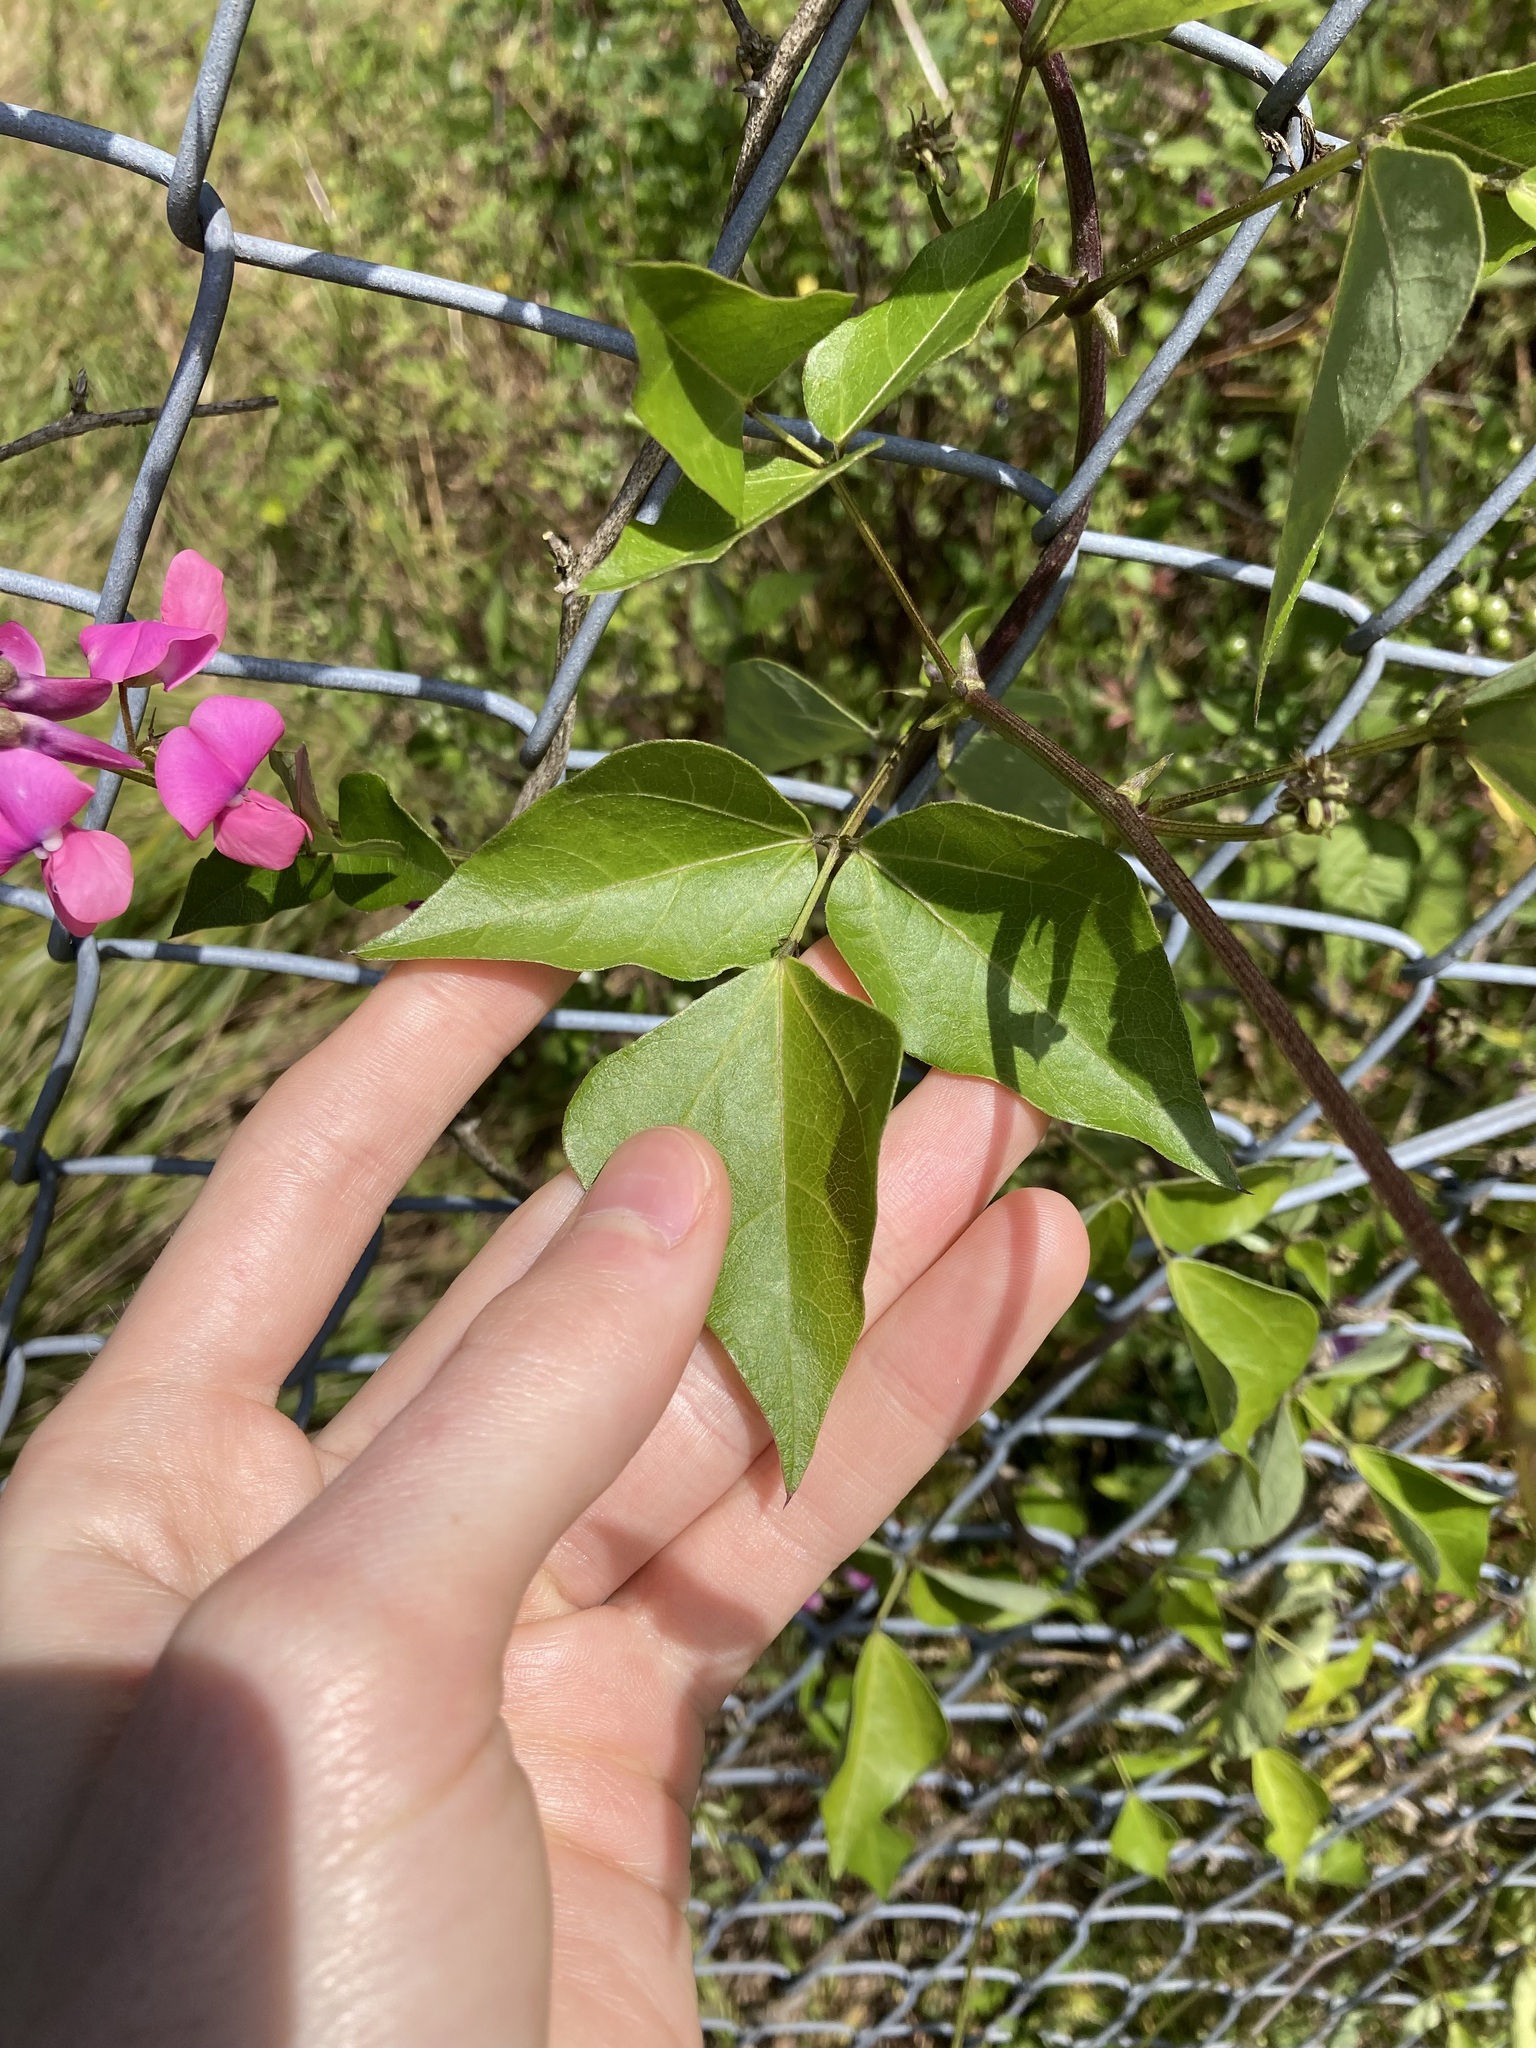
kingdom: Plantae
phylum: Tracheophyta
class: Magnoliopsida
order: Fabales
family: Fabaceae
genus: Dipogon
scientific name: Dipogon lignosus
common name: Okie bean
